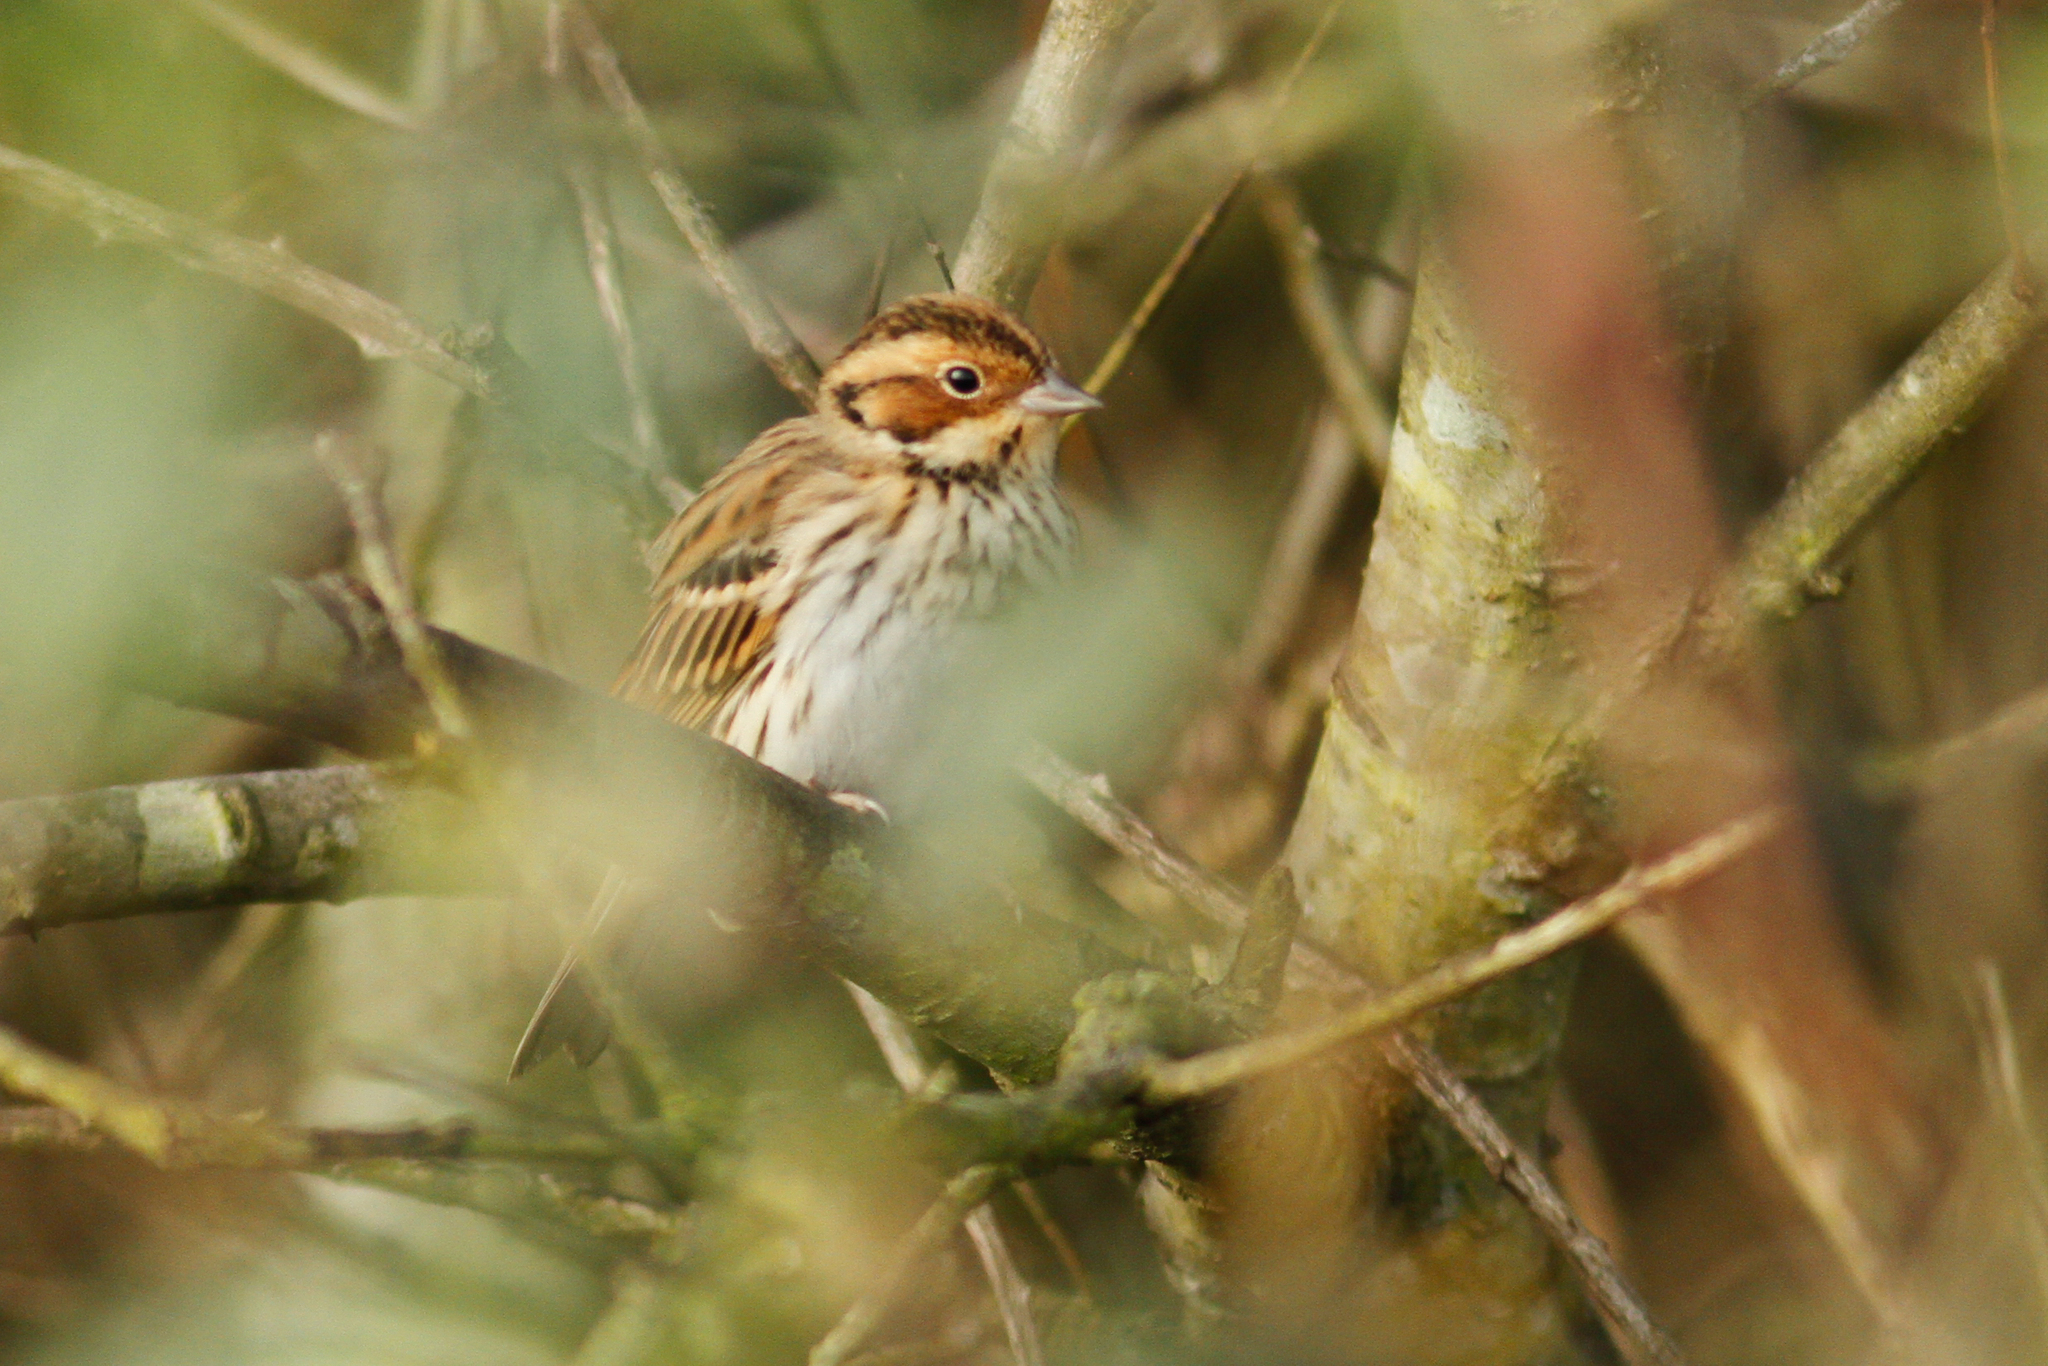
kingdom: Animalia
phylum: Chordata
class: Aves
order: Passeriformes
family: Emberizidae
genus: Emberiza
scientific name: Emberiza pusilla
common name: Little bunting
